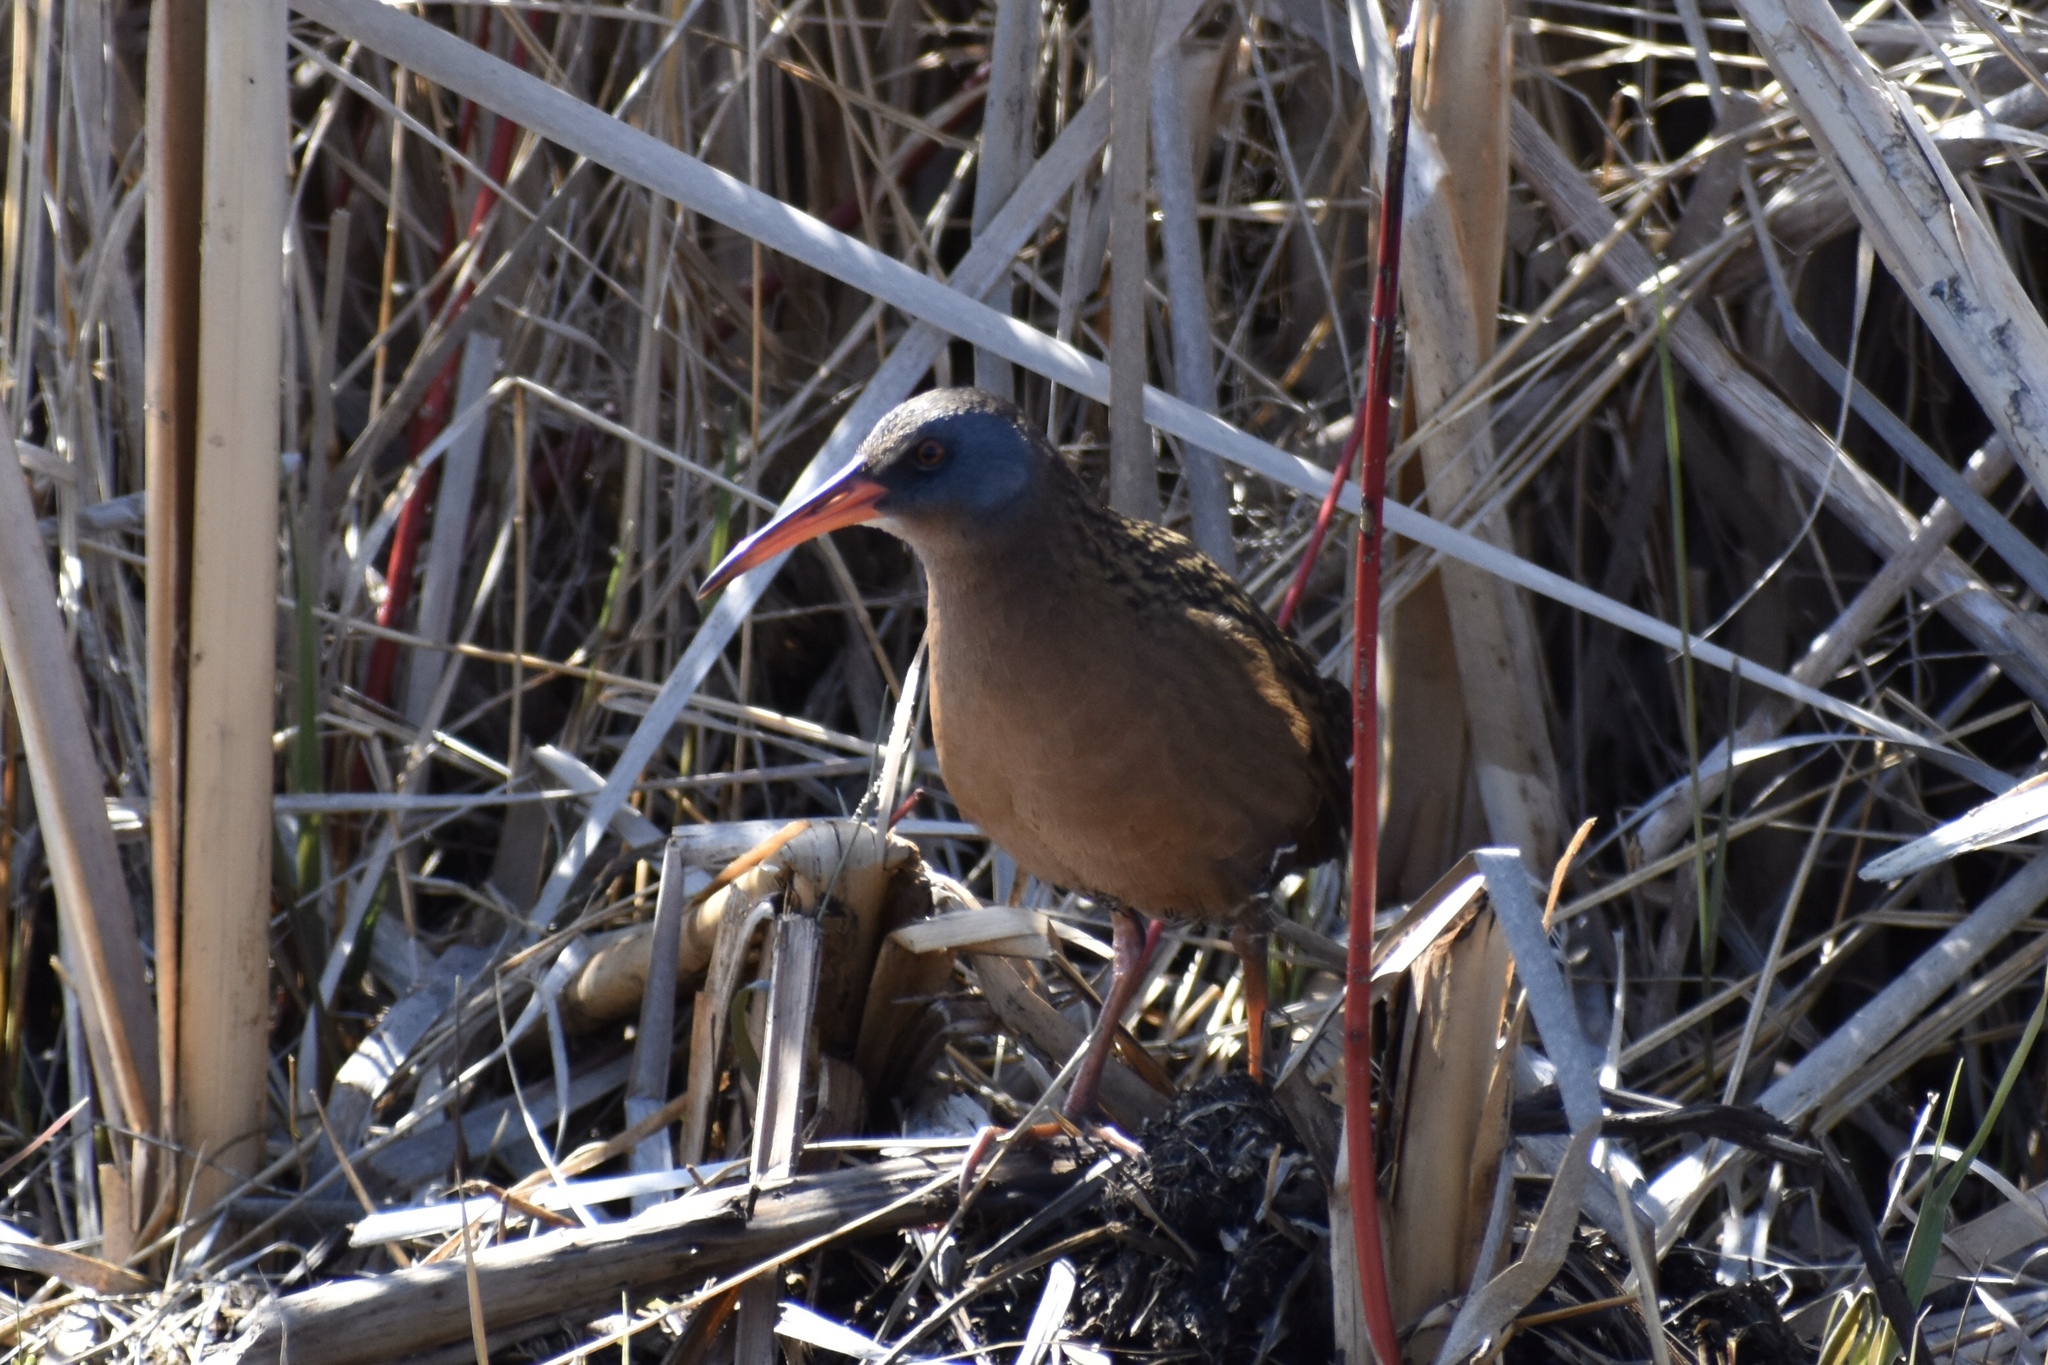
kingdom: Animalia
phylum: Chordata
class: Aves
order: Gruiformes
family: Rallidae
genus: Rallus
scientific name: Rallus limicola
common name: Virginia rail
